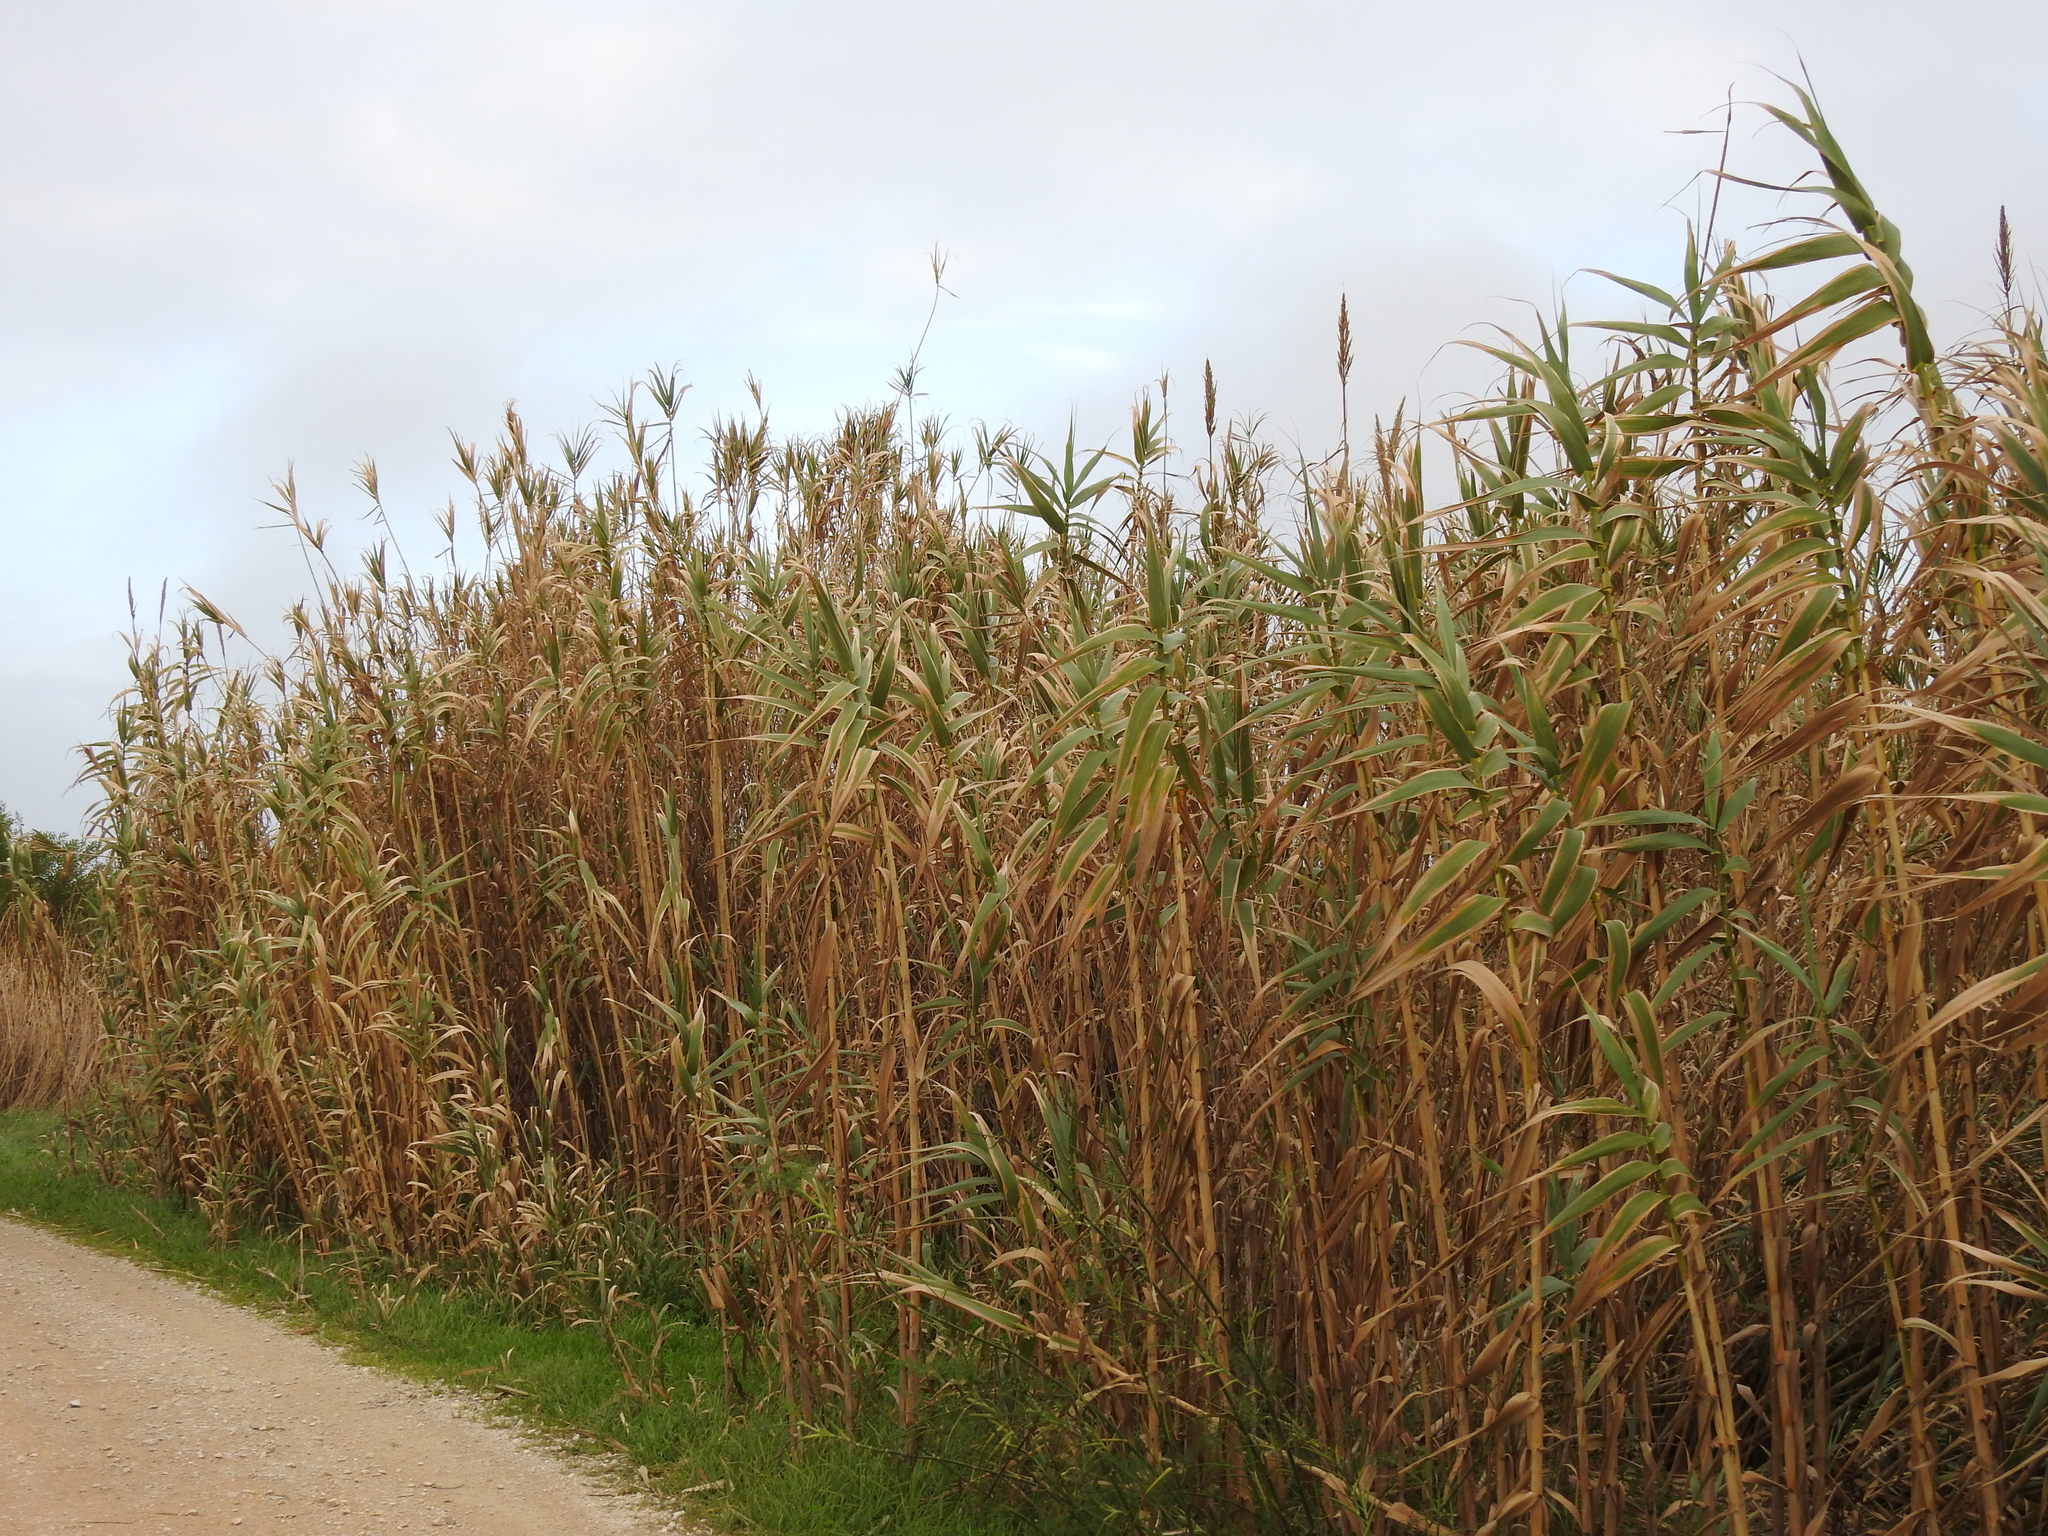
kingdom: Plantae
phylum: Tracheophyta
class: Liliopsida
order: Poales
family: Poaceae
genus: Arundo
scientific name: Arundo donax
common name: Giant reed
